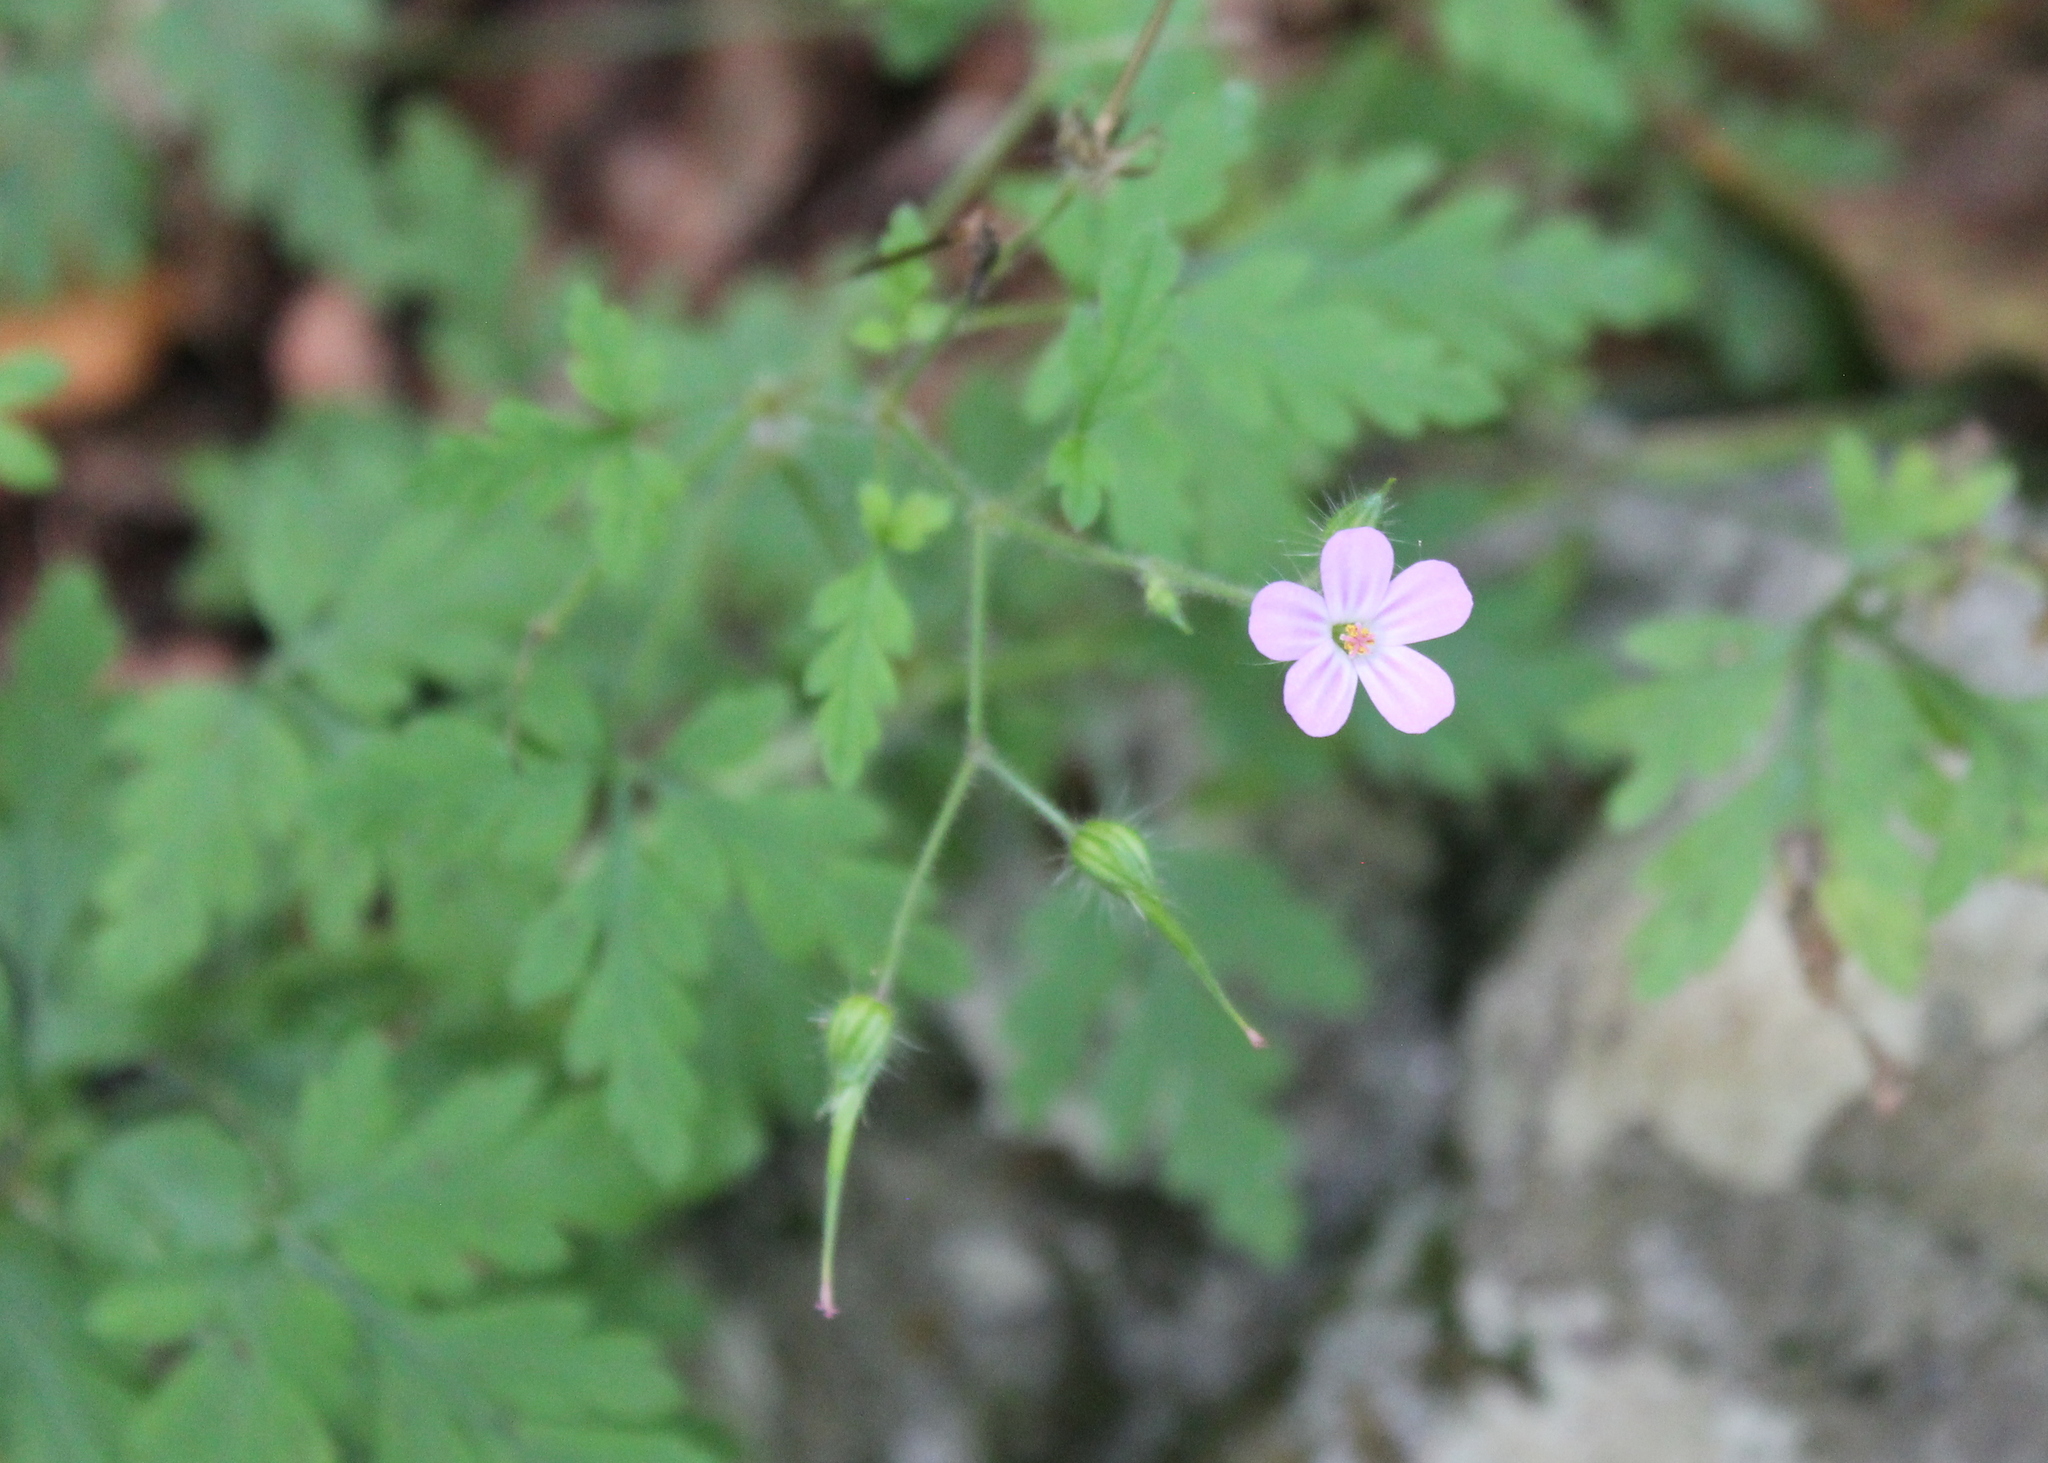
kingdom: Plantae
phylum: Tracheophyta
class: Magnoliopsida
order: Geraniales
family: Geraniaceae
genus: Geranium
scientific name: Geranium robertianum
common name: Herb-robert
